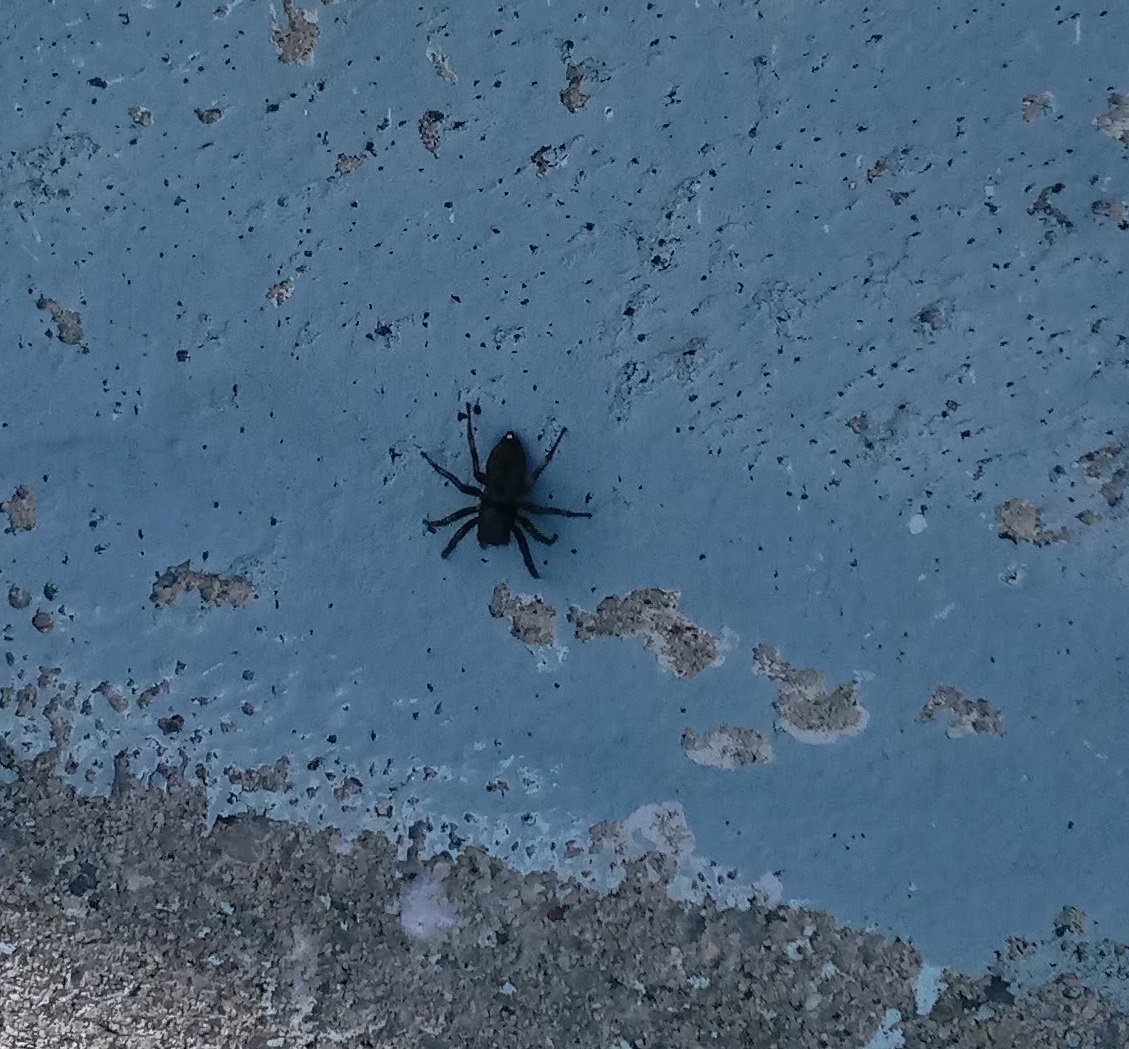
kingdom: Animalia
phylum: Arthropoda
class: Arachnida
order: Araneae
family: Salticidae
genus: Hakka
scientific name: Hakka himeshimensis
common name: Jumping spider
